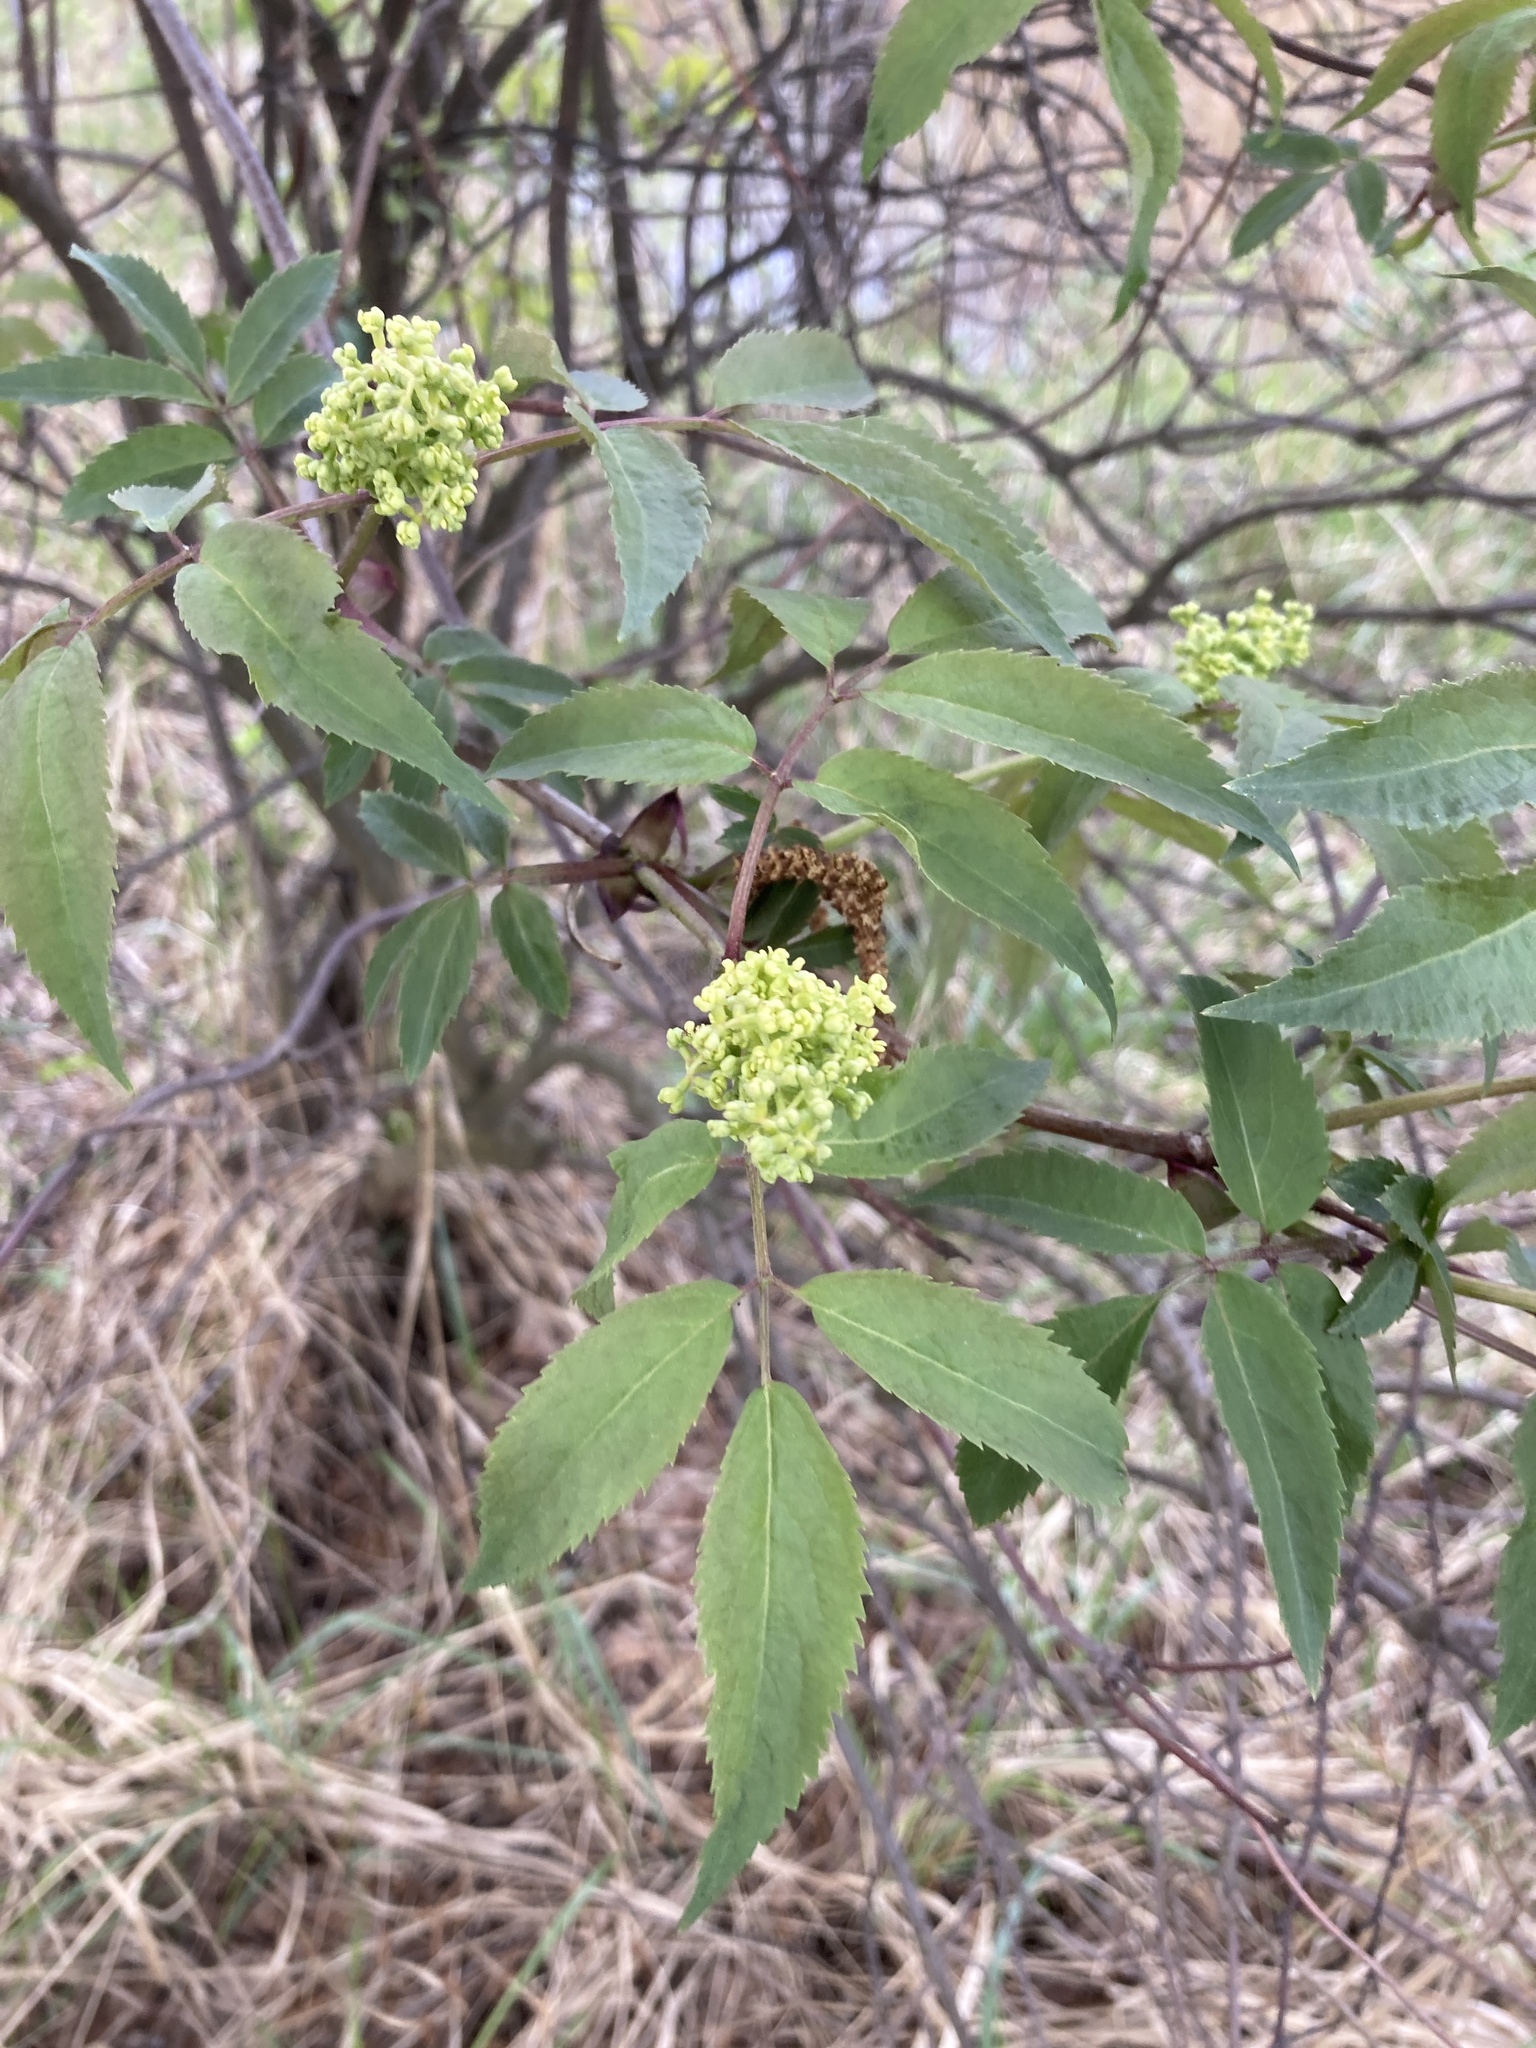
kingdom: Plantae
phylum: Tracheophyta
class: Magnoliopsida
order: Dipsacales
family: Viburnaceae
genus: Sambucus
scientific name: Sambucus racemosa
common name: Red-berried elder
